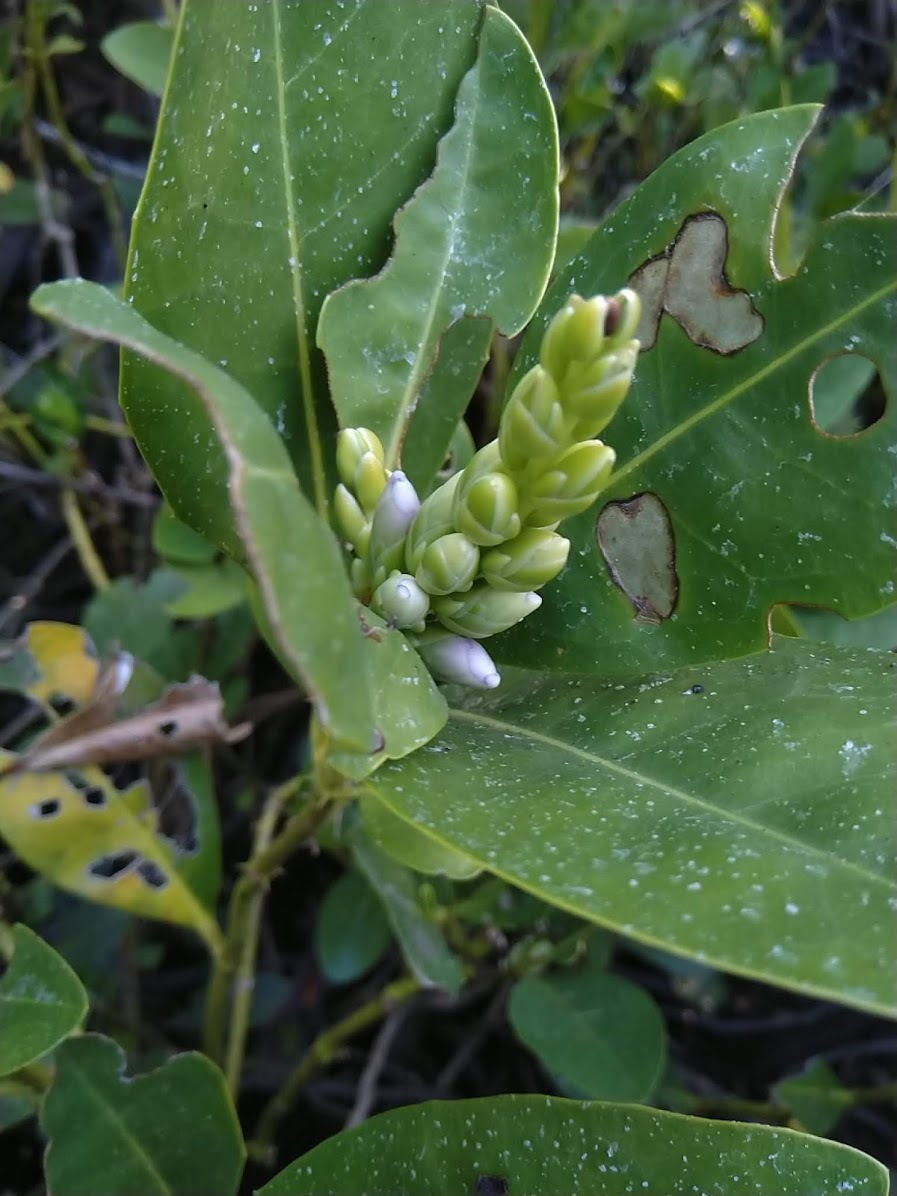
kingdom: Plantae
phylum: Tracheophyta
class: Magnoliopsida
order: Lamiales
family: Acanthaceae
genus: Acanthus
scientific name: Acanthus ilicifolius
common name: Holy mangrove
